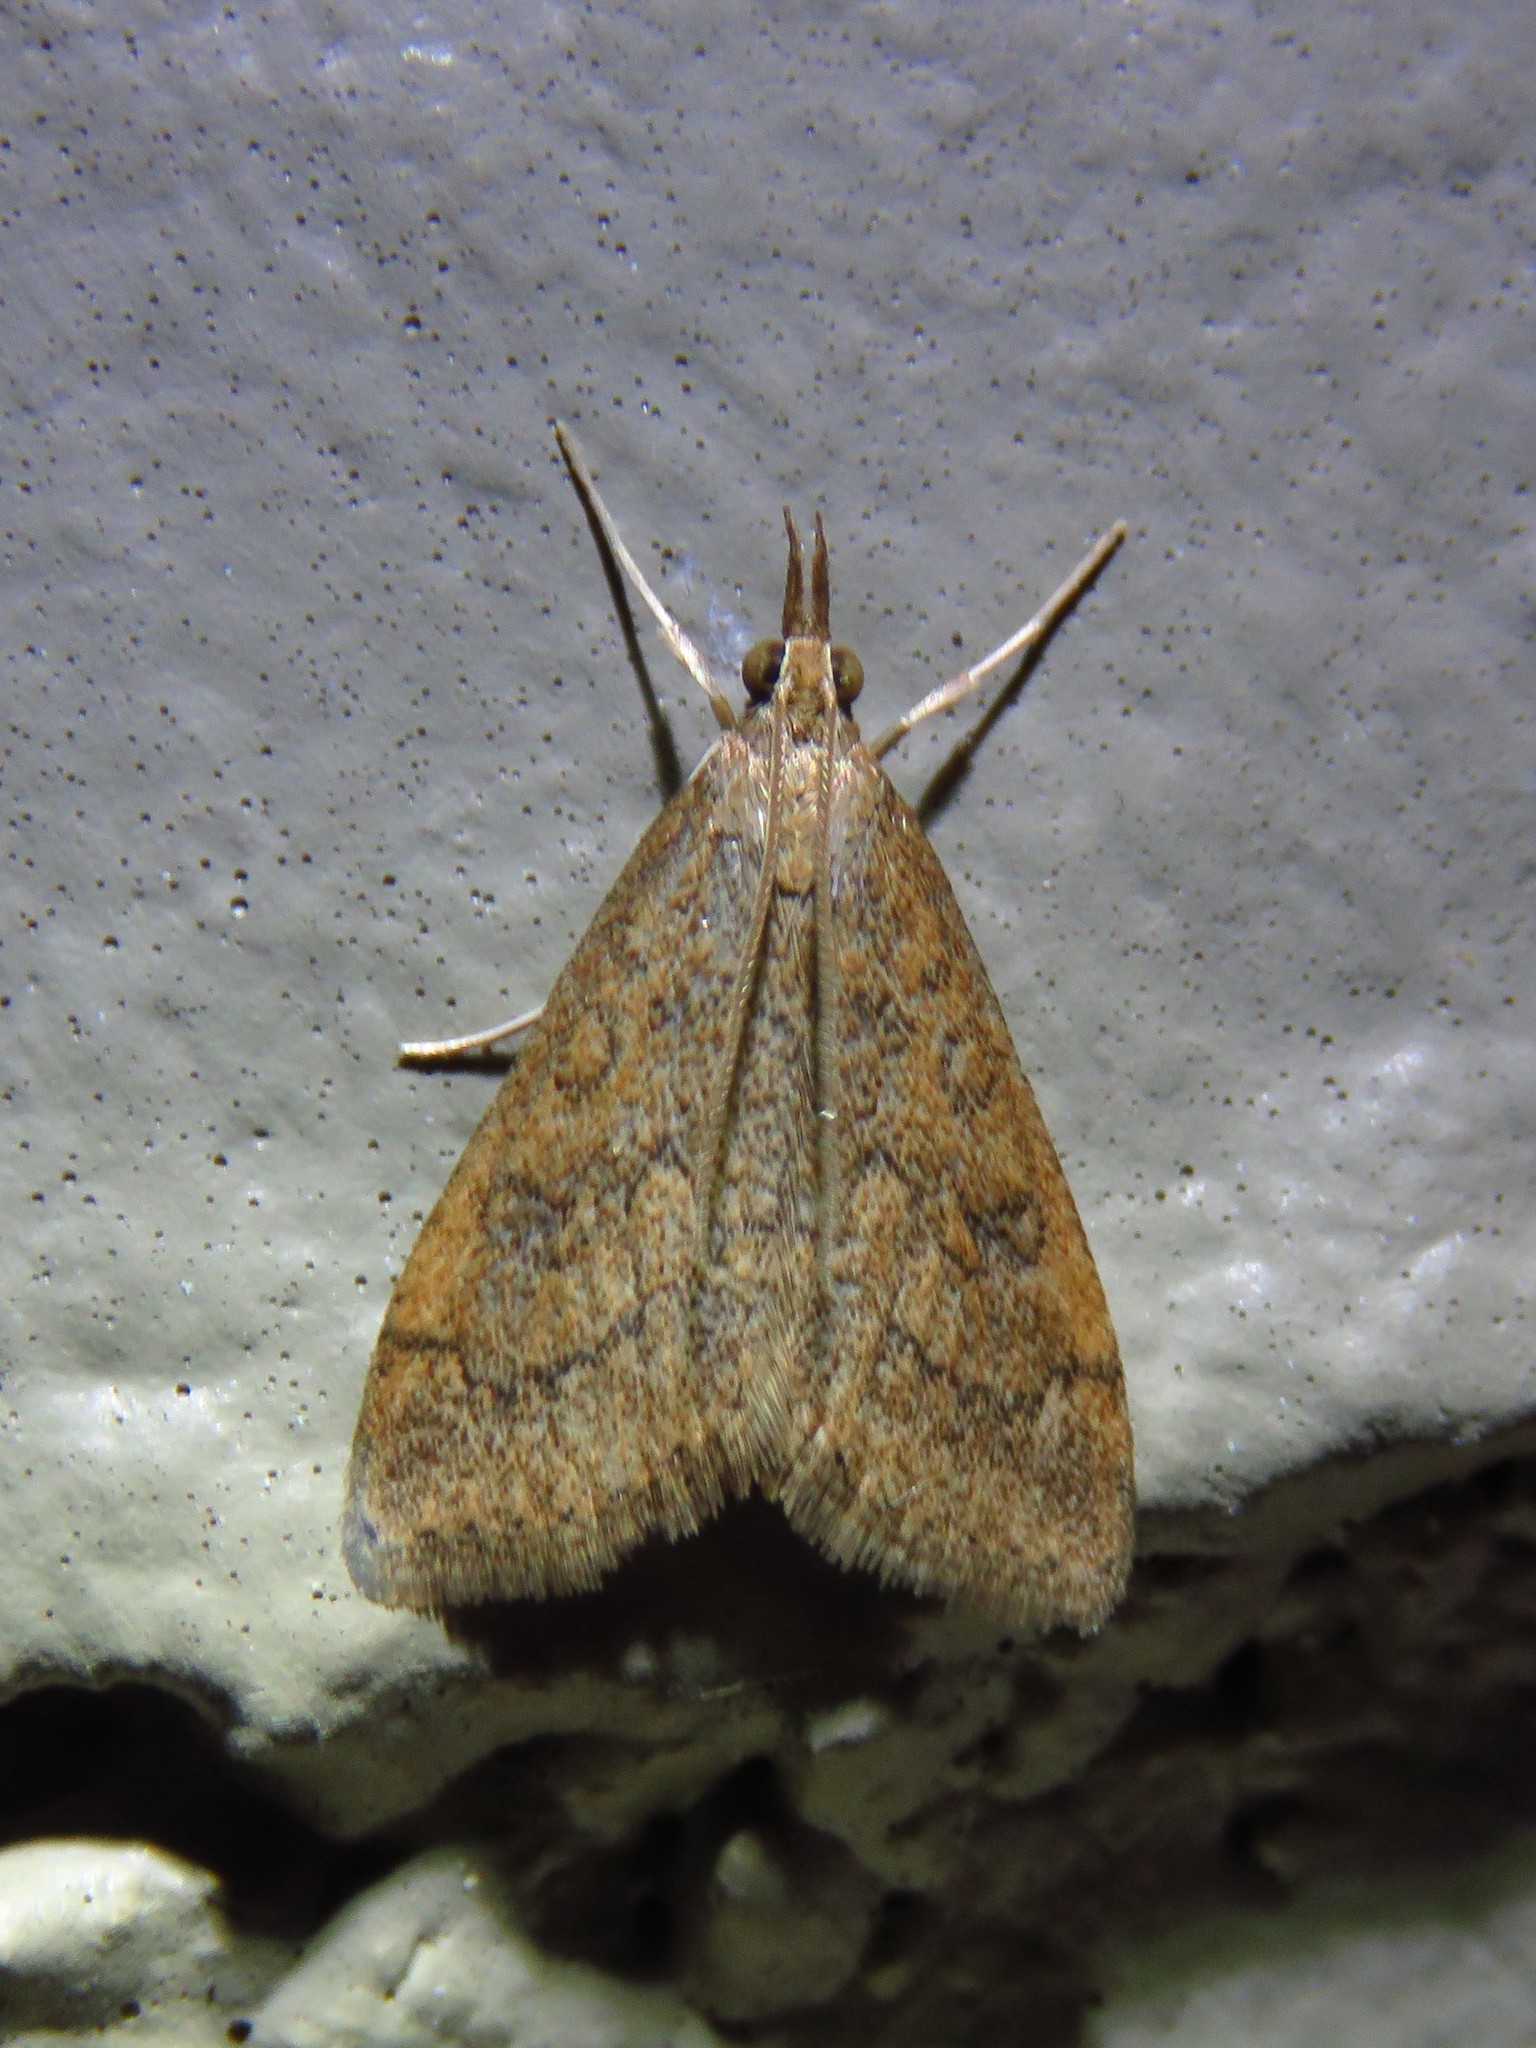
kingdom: Animalia
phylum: Arthropoda
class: Insecta
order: Lepidoptera
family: Crambidae
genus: Udea
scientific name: Udea rubigalis
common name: Celery leaftier moth
